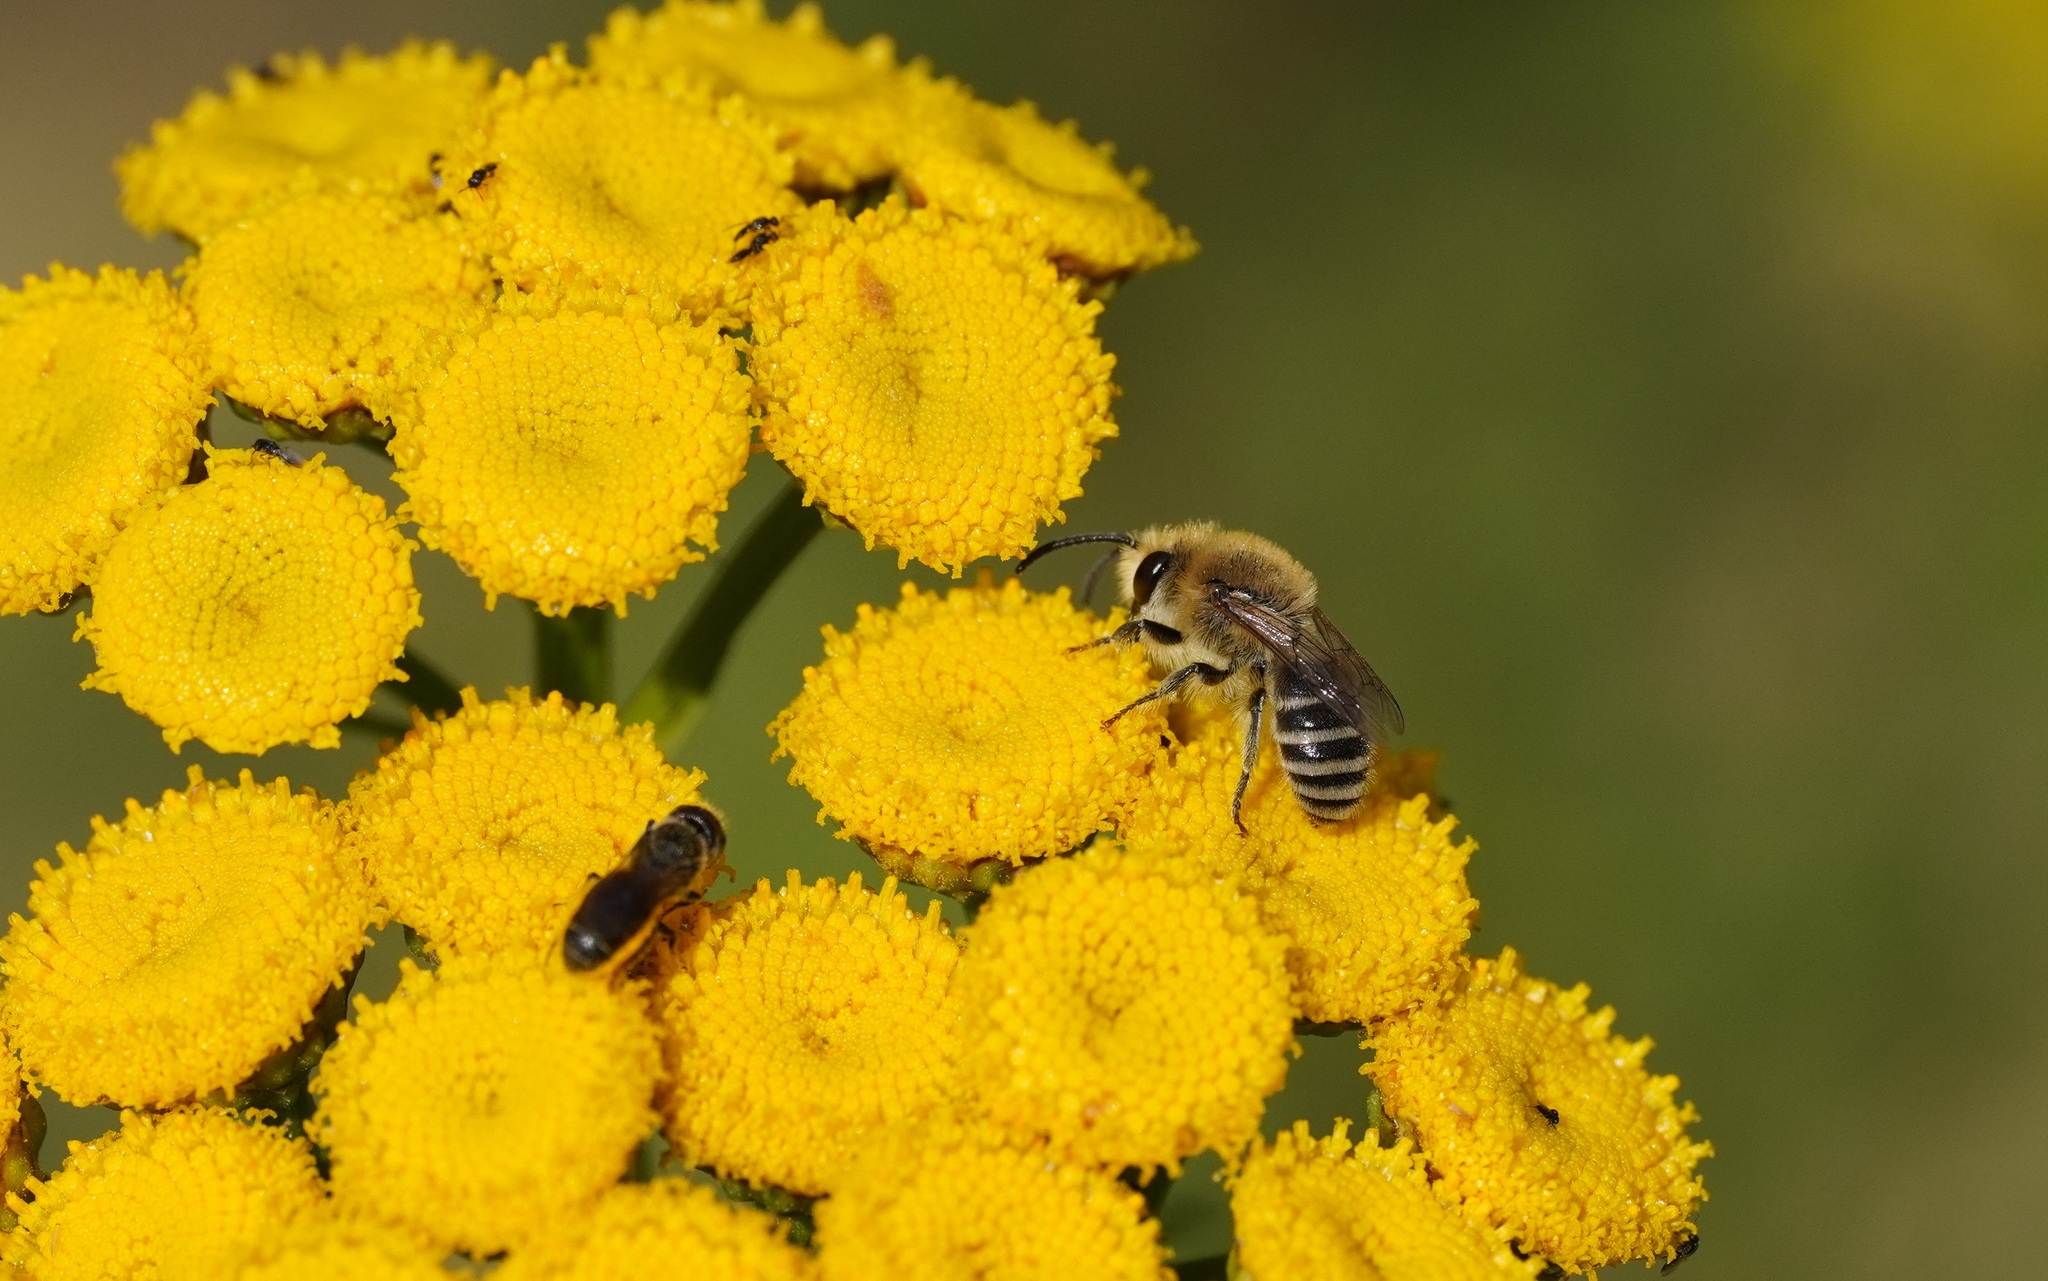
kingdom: Animalia
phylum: Arthropoda
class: Insecta
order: Hymenoptera
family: Colletidae
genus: Colletes
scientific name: Colletes
